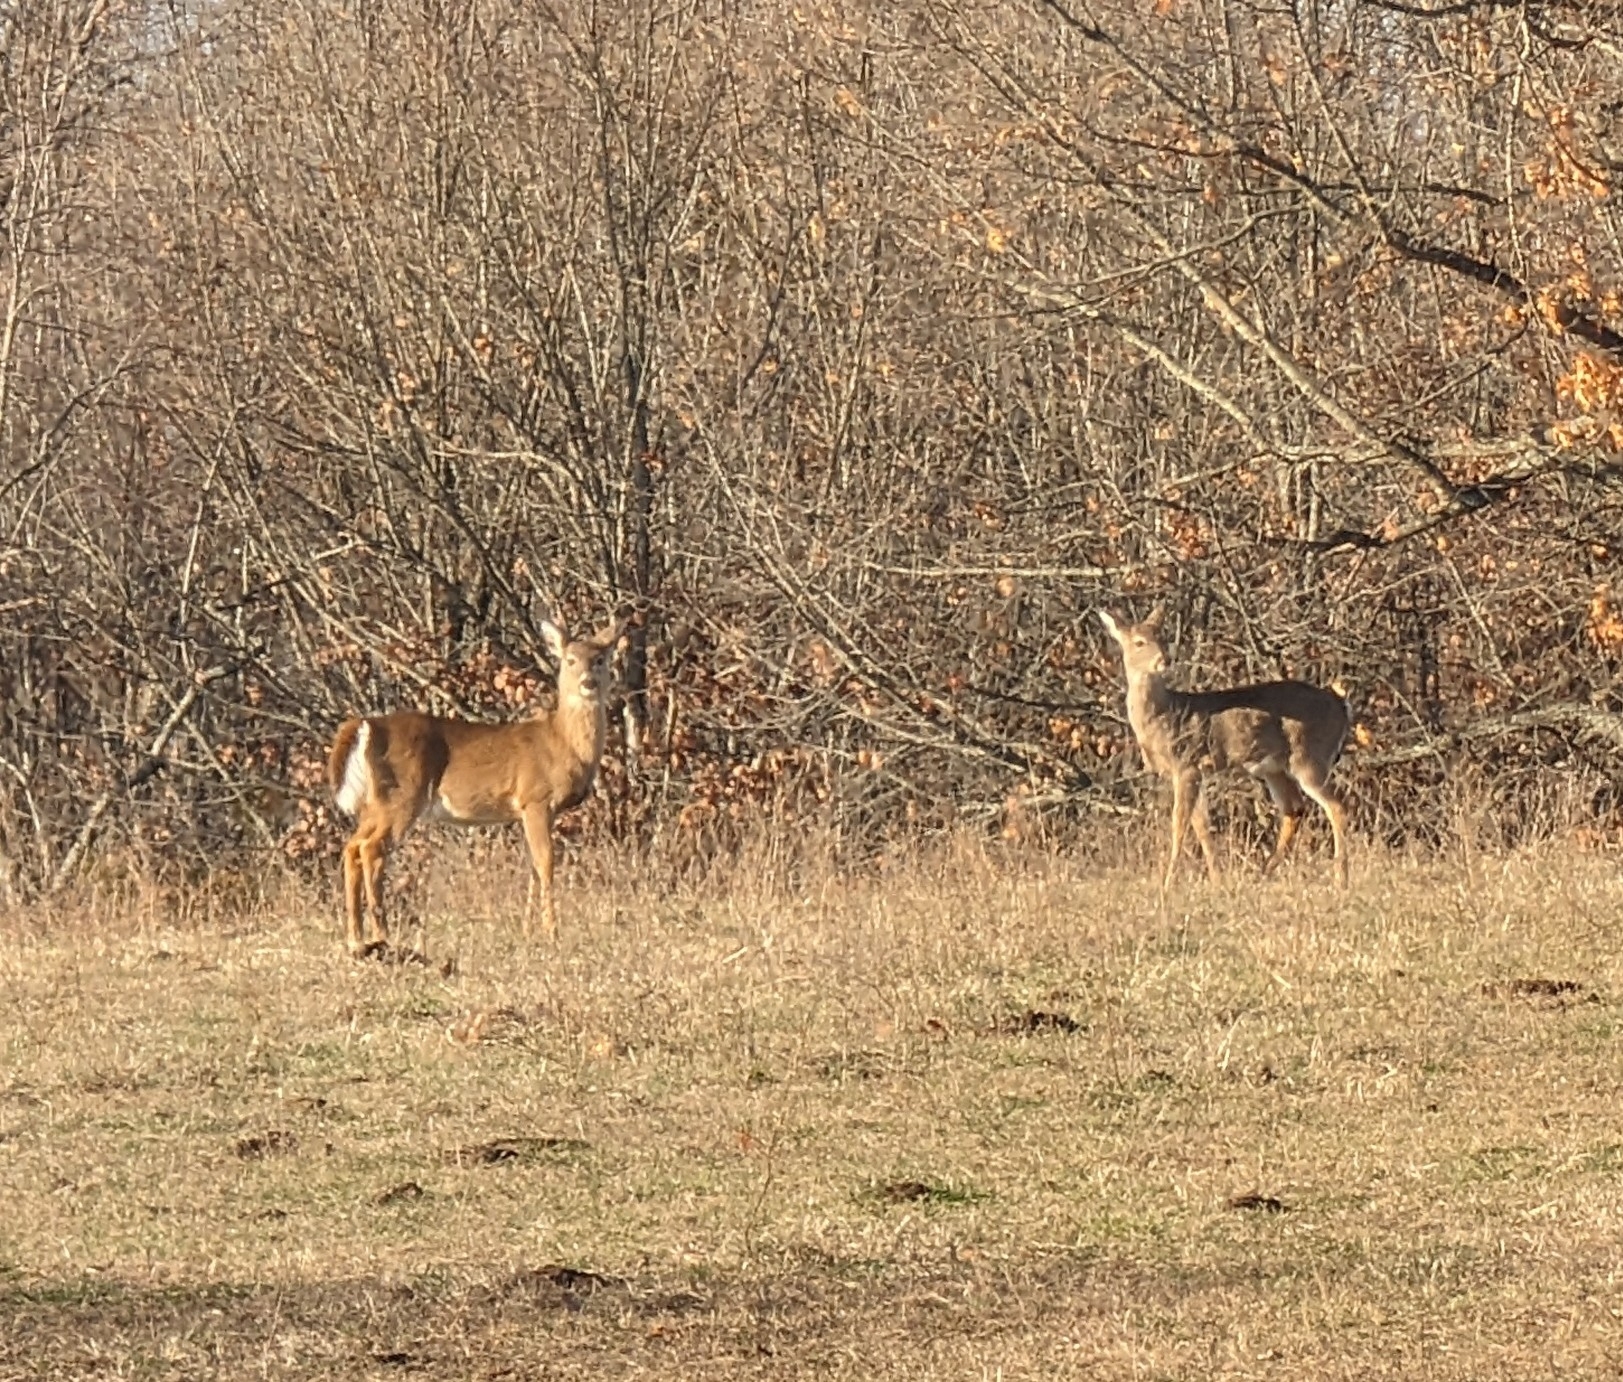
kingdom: Animalia
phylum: Chordata
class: Mammalia
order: Artiodactyla
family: Cervidae
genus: Odocoileus
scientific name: Odocoileus virginianus
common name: White-tailed deer
